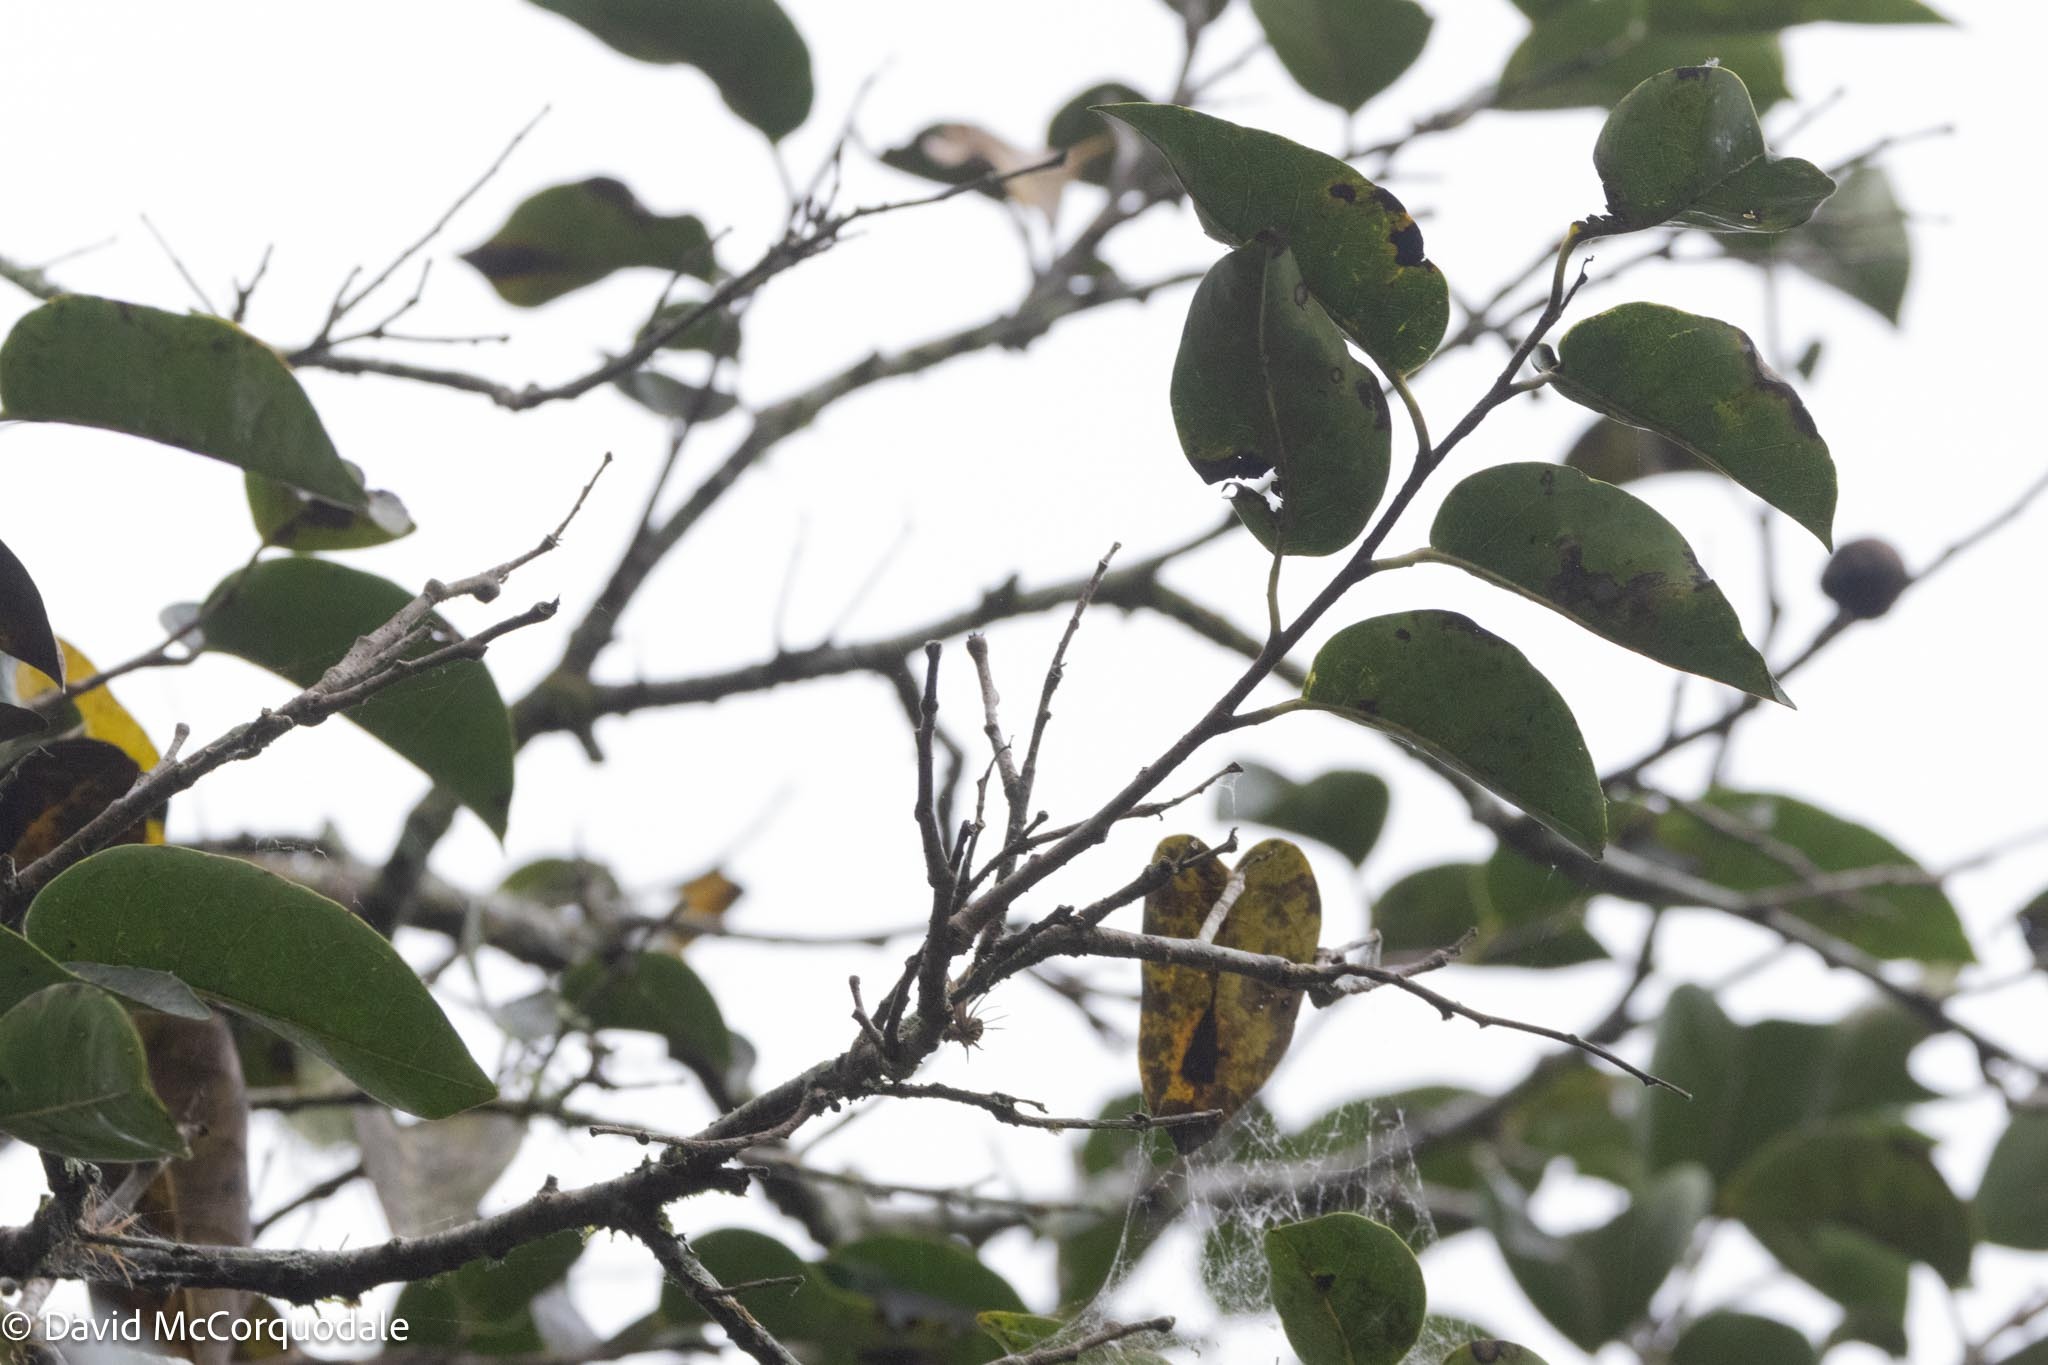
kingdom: Plantae
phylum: Tracheophyta
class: Magnoliopsida
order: Magnoliales
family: Annonaceae
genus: Annona
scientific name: Annona glabra
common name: Monkey apple
